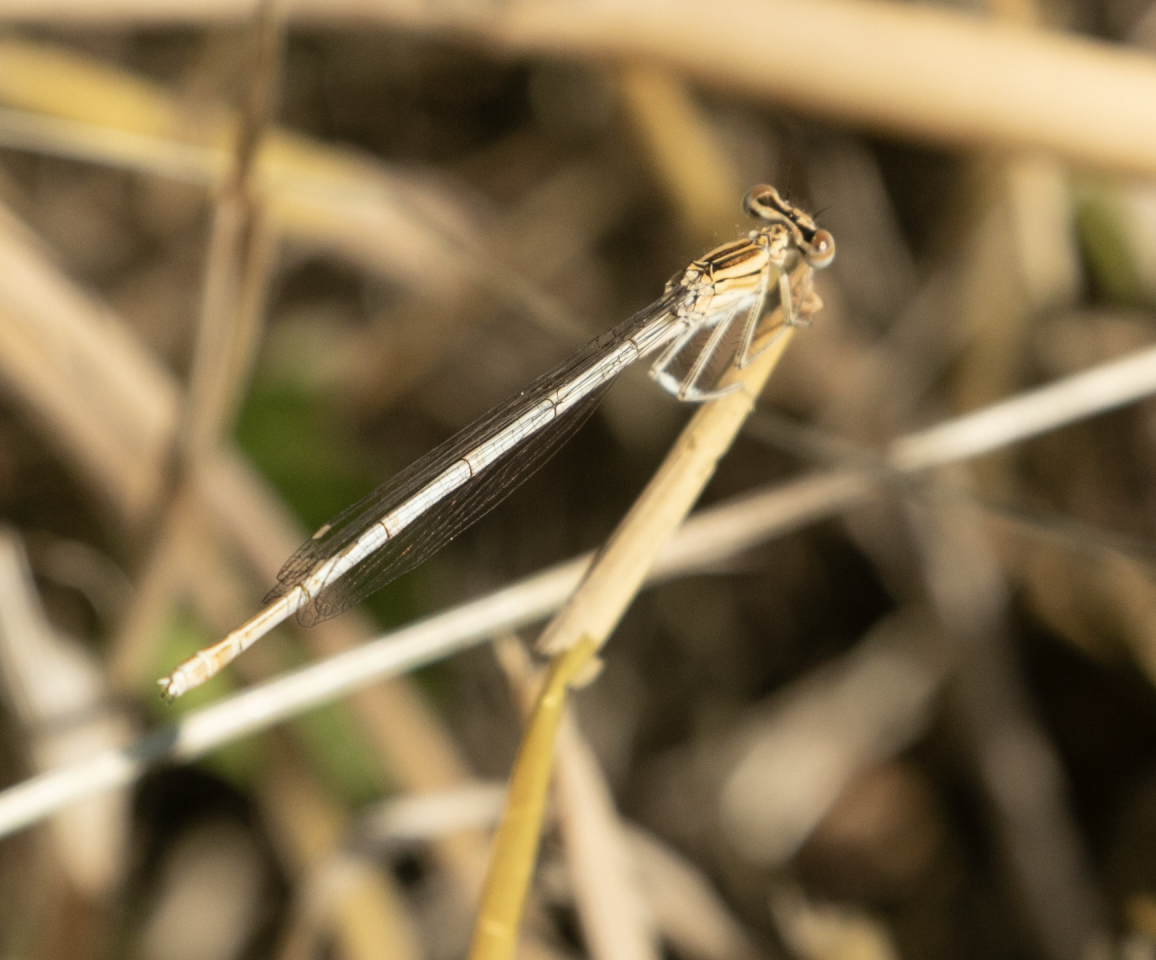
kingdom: Animalia
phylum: Arthropoda
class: Insecta
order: Odonata
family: Platycnemididae
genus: Platycnemis
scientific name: Platycnemis pennipes
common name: White-legged damselfly
